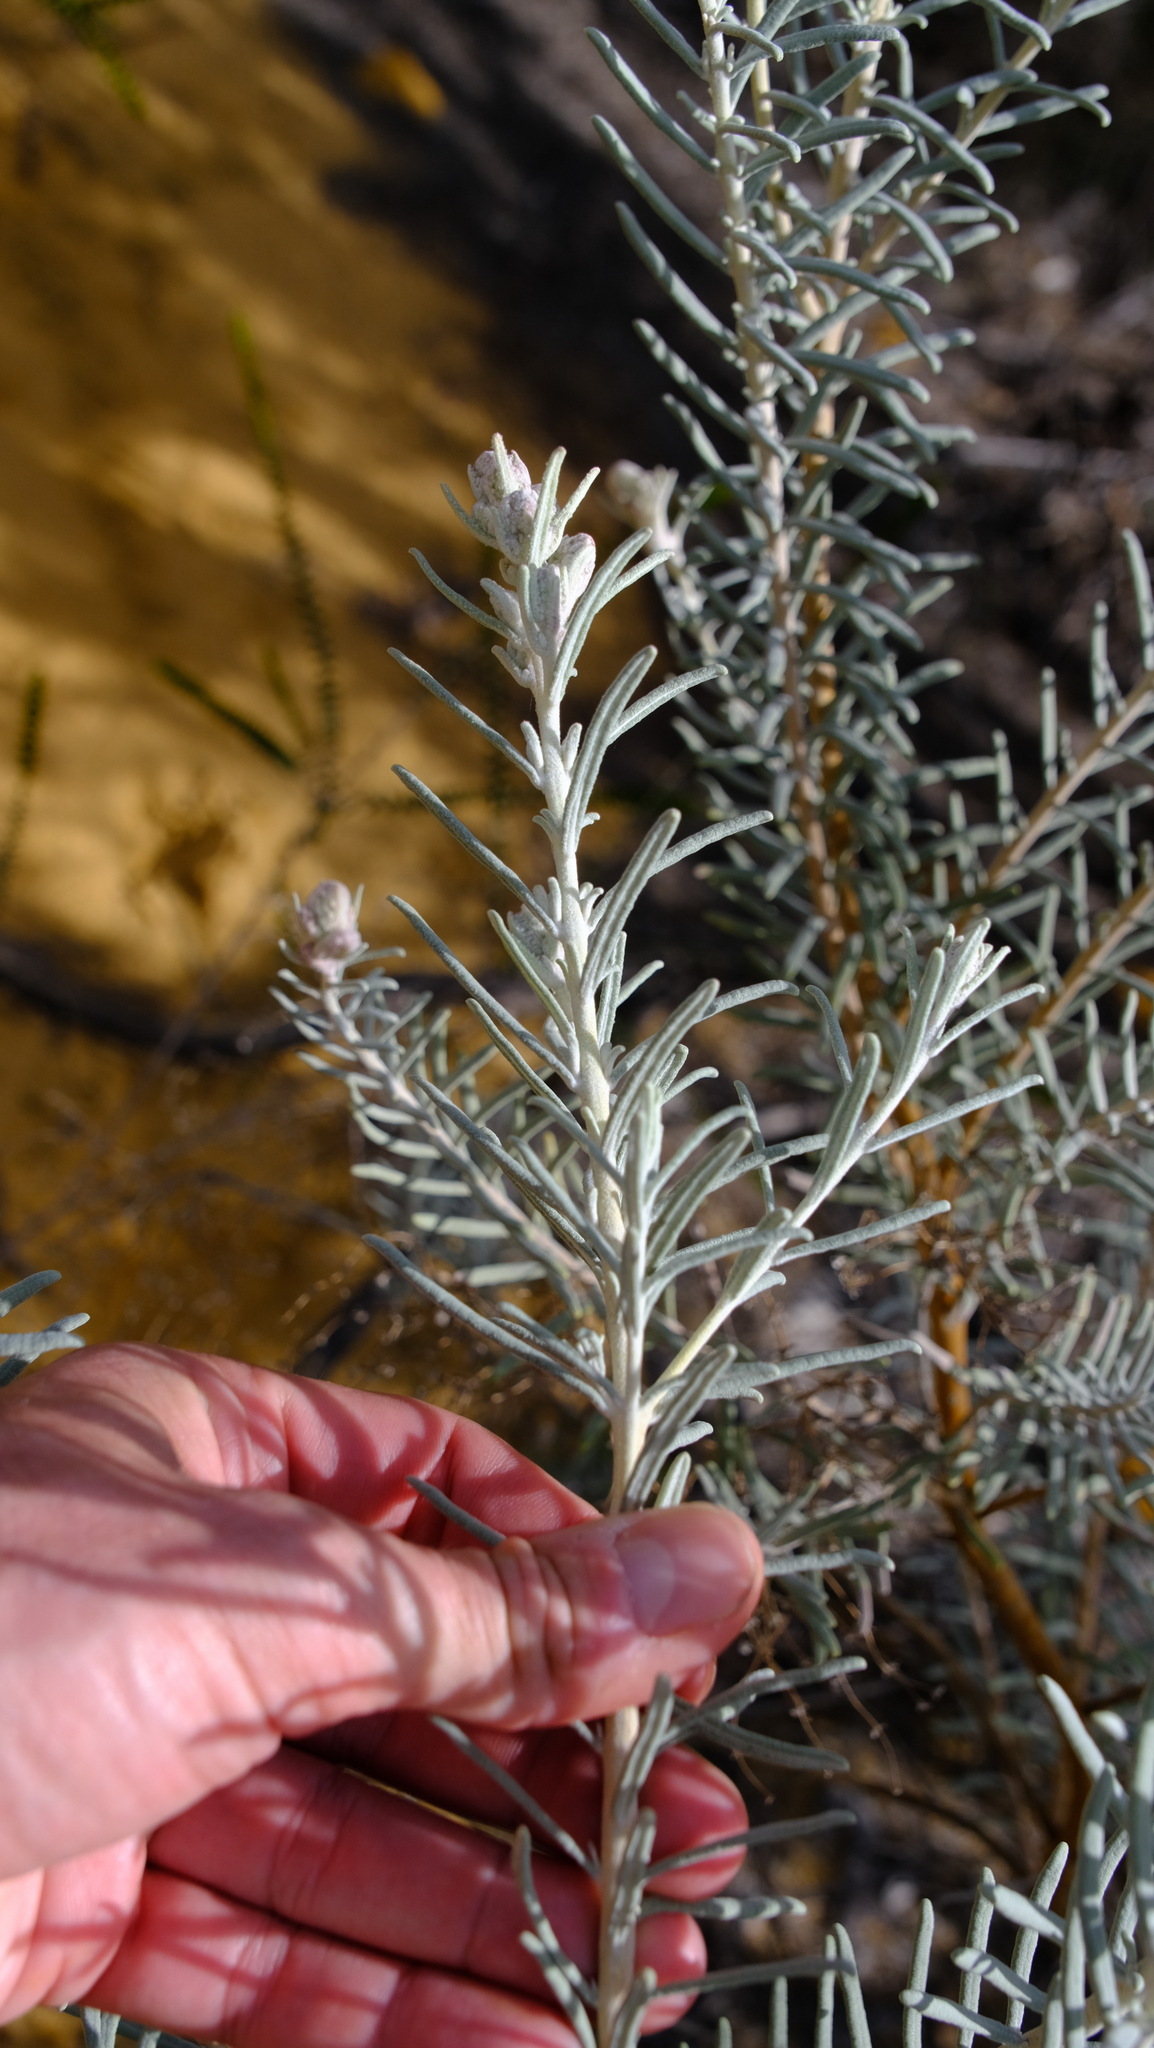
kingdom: Plantae
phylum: Tracheophyta
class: Magnoliopsida
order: Lamiales
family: Lamiaceae
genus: Lachnostachys
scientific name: Lachnostachys eriobotrya
